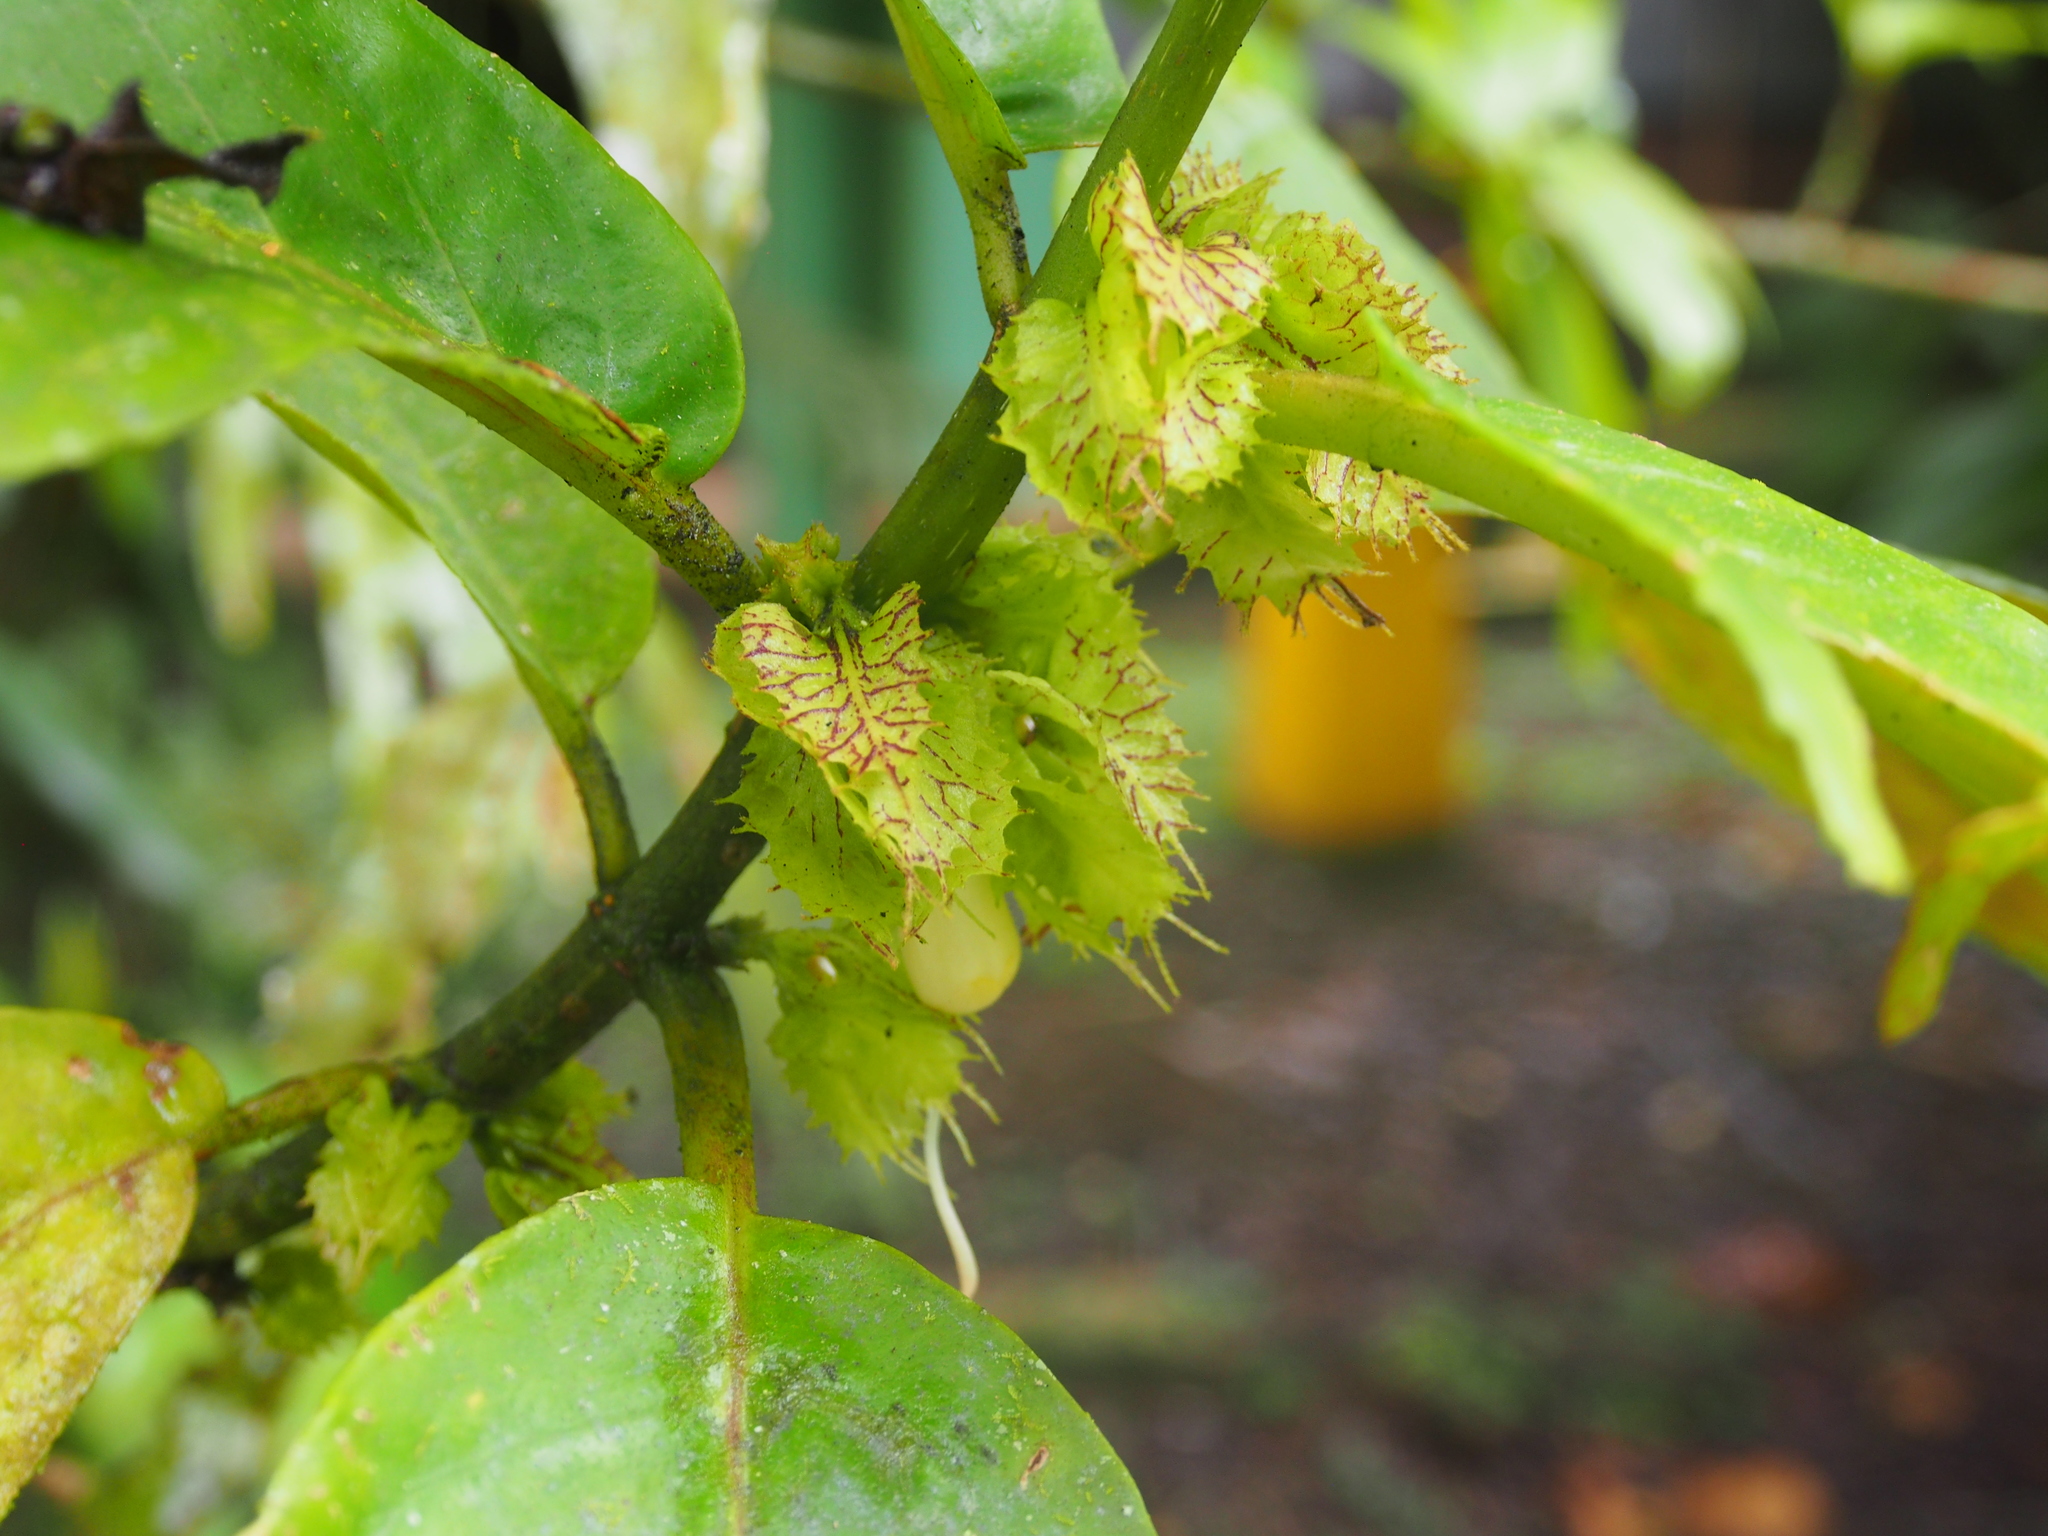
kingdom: Plantae
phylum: Tracheophyta
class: Magnoliopsida
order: Lamiales
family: Gesneriaceae
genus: Drymonia
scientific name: Drymonia macrophylla
